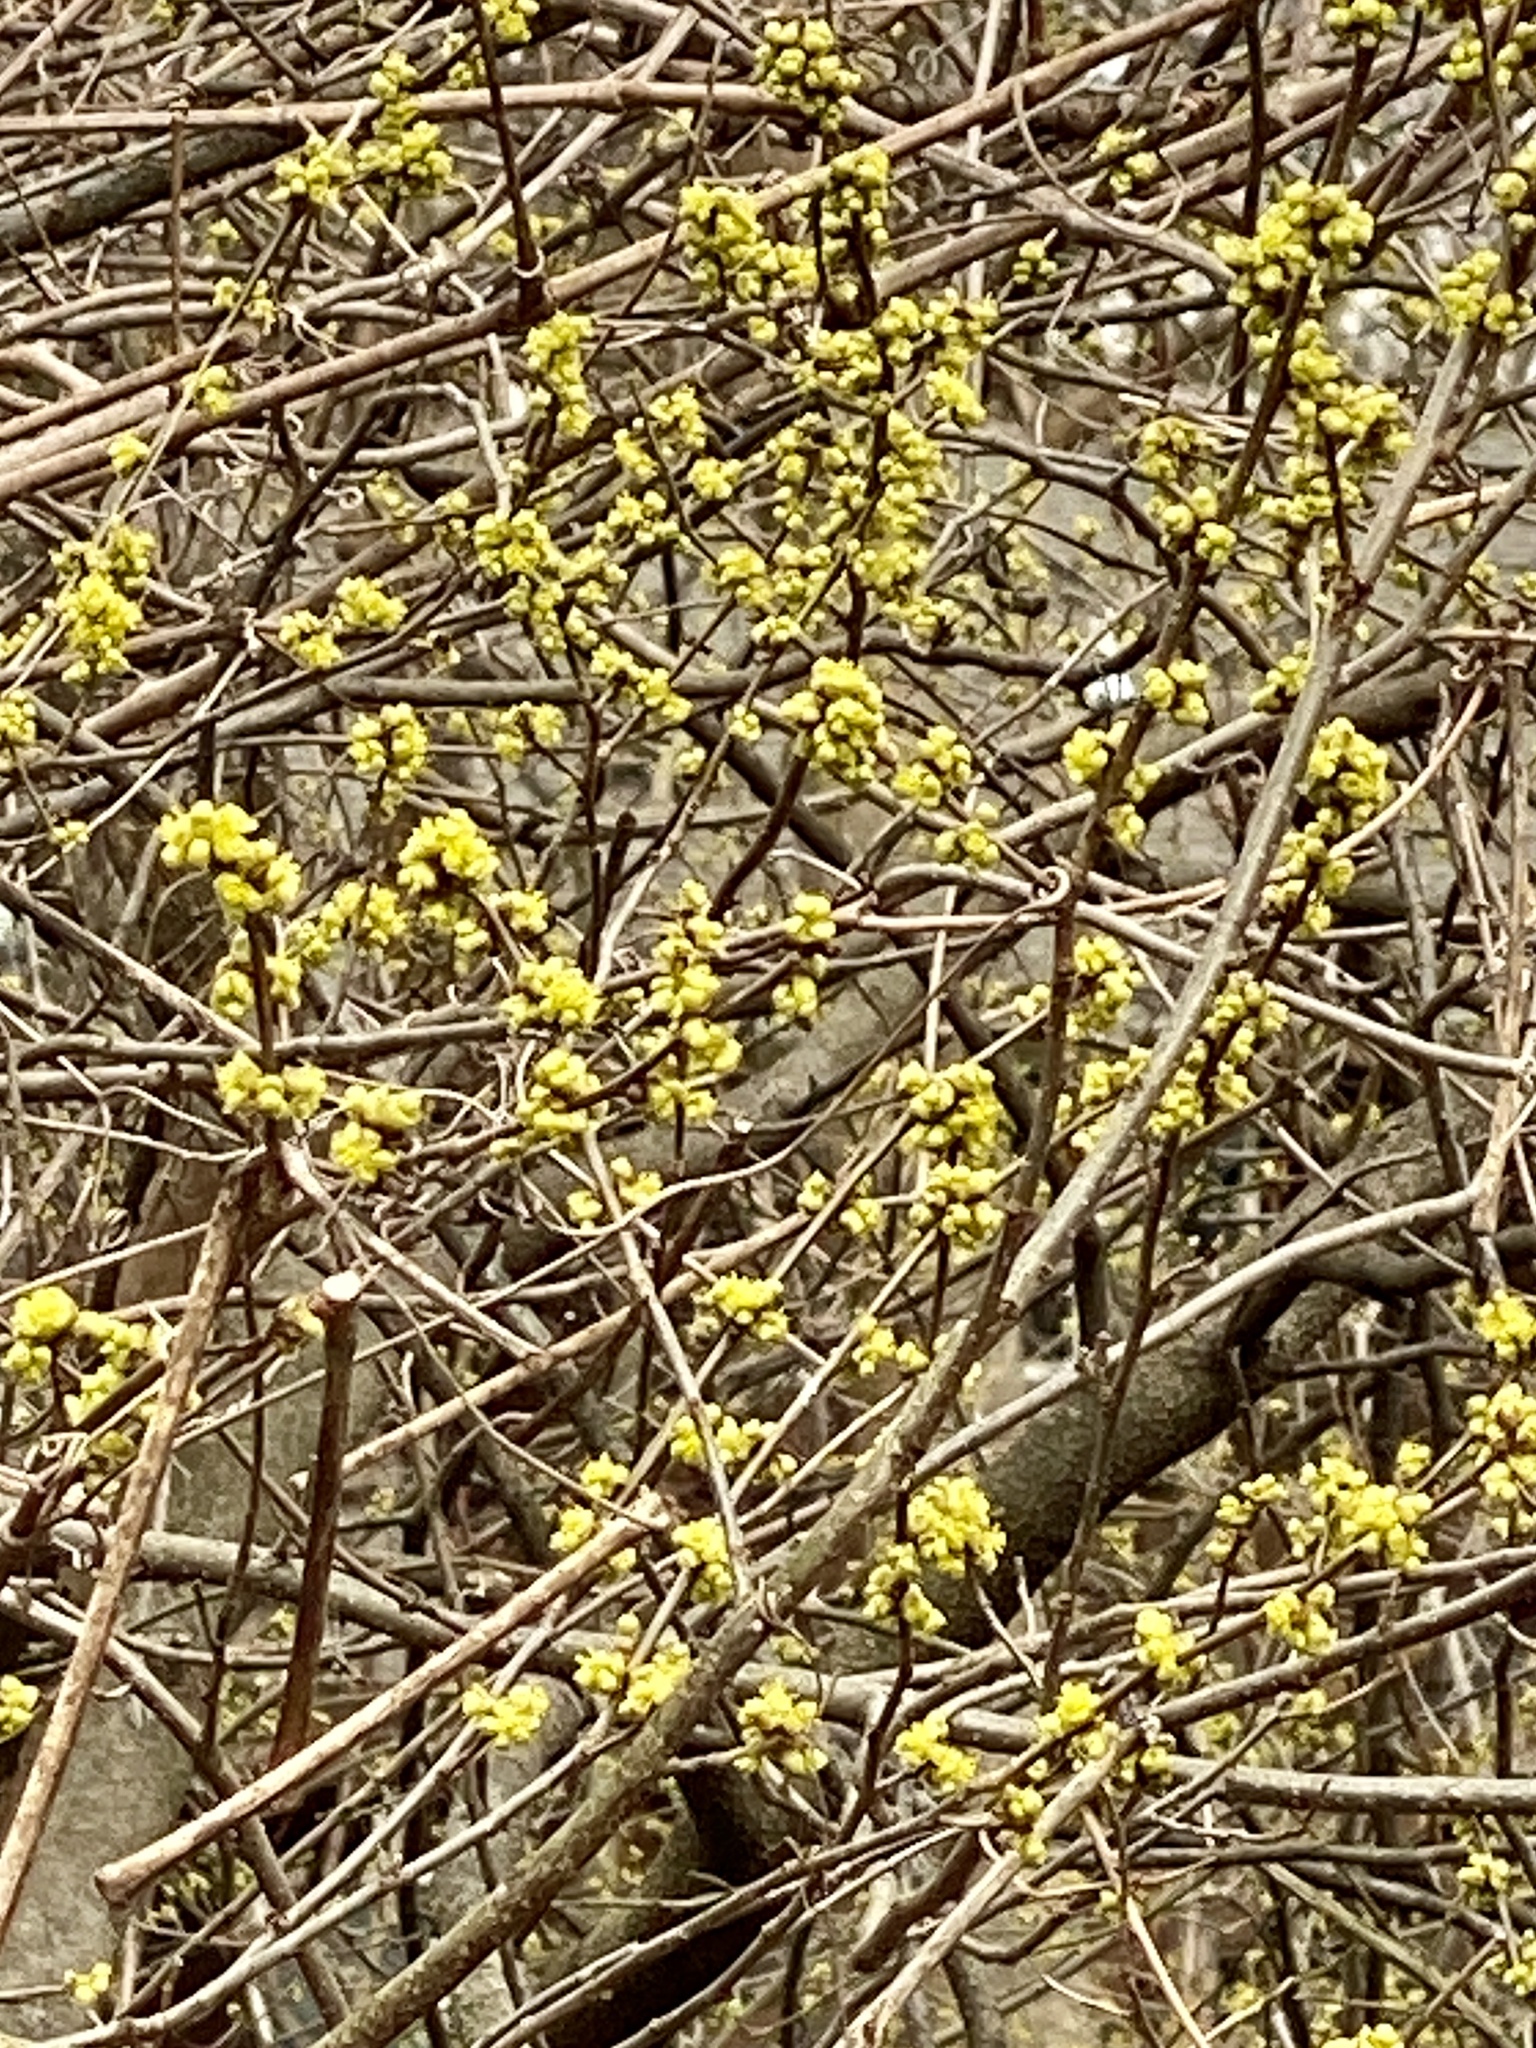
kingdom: Plantae
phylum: Tracheophyta
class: Magnoliopsida
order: Laurales
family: Lauraceae
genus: Lindera
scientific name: Lindera benzoin
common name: Spicebush
